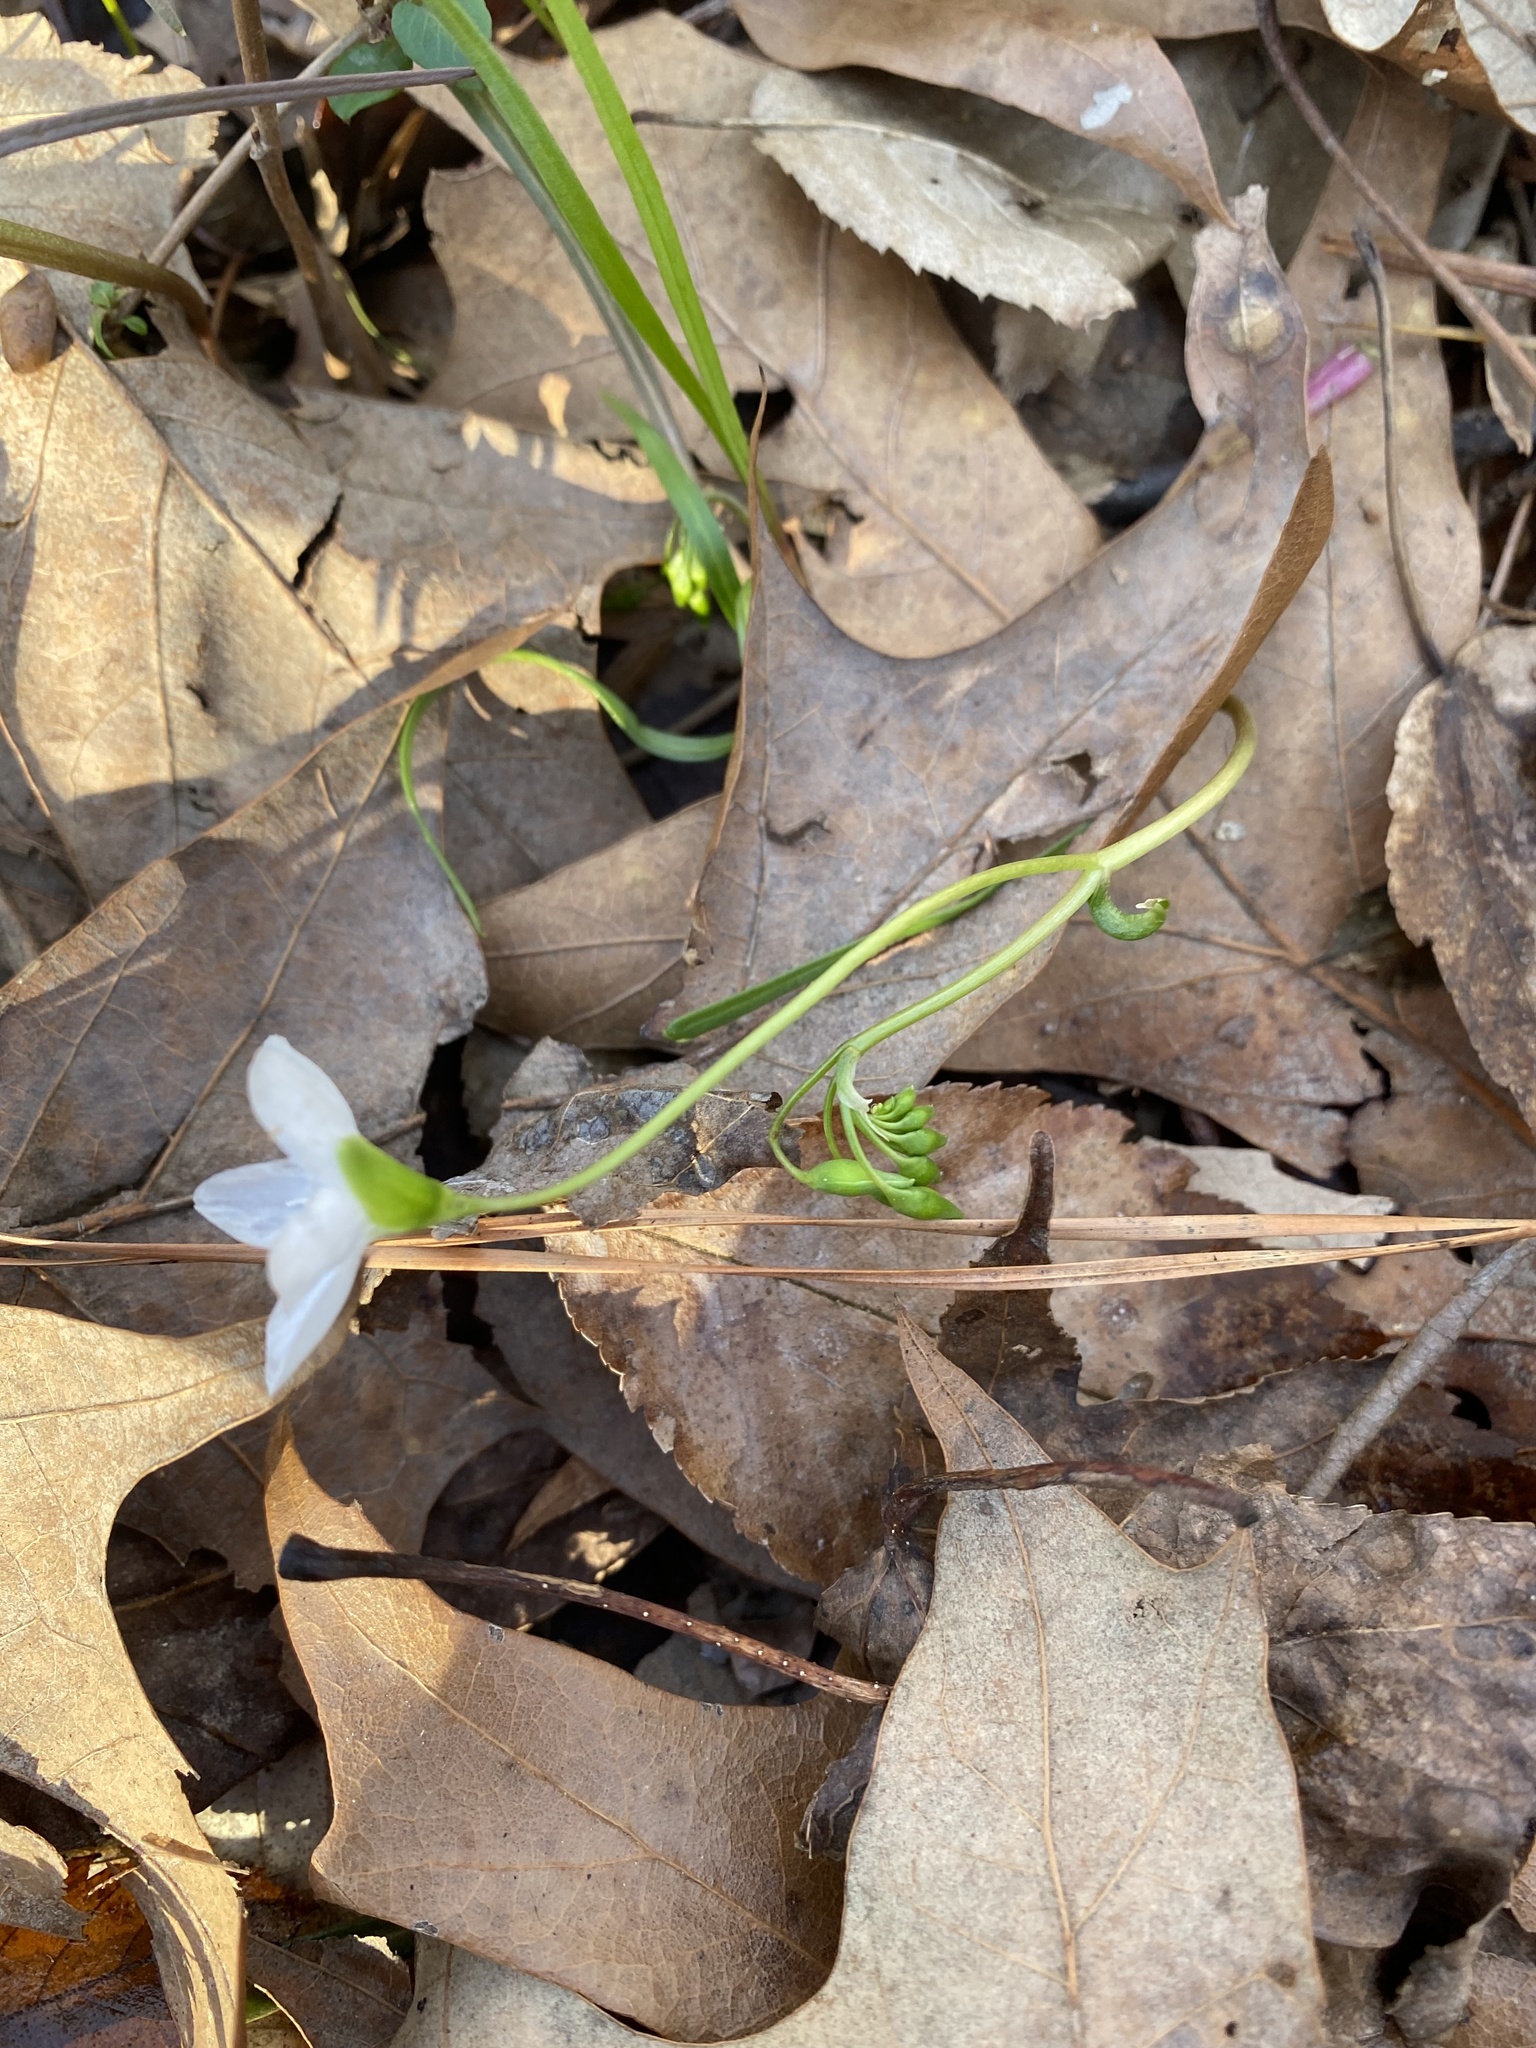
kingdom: Plantae
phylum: Tracheophyta
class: Magnoliopsida
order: Caryophyllales
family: Montiaceae
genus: Claytonia
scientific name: Claytonia virginica
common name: Virginia springbeauty
